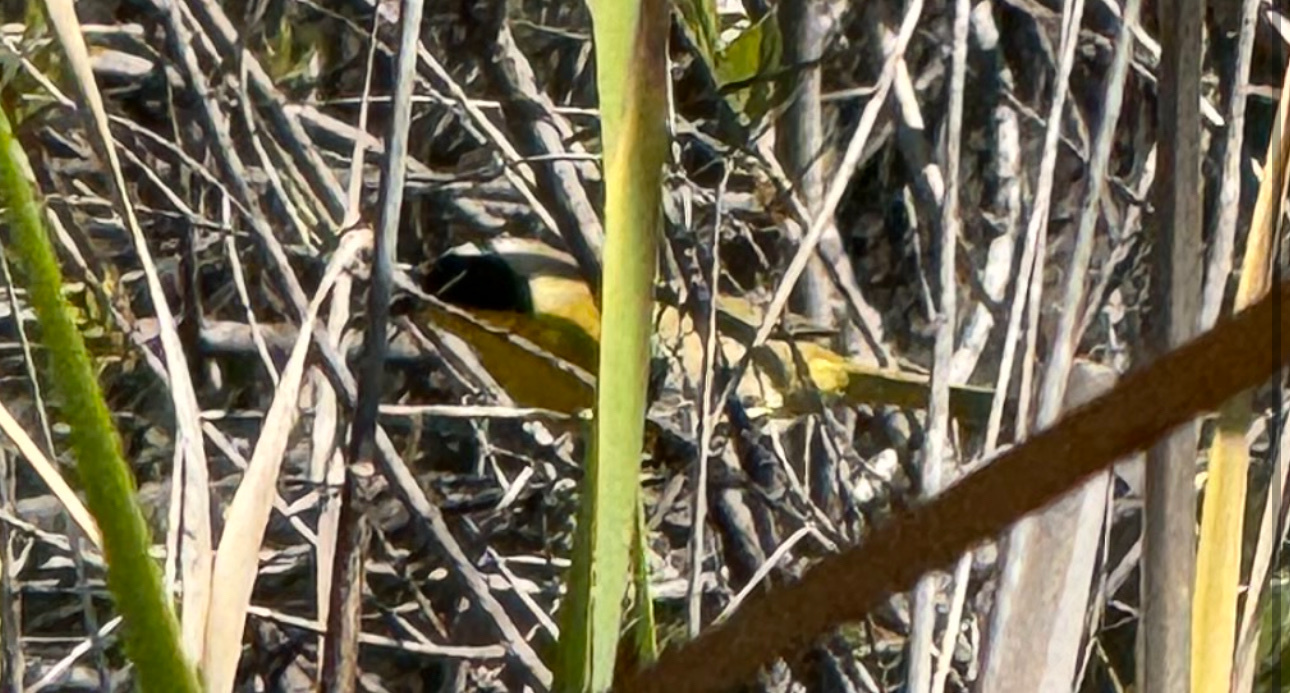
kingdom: Animalia
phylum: Chordata
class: Aves
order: Passeriformes
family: Parulidae
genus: Geothlypis
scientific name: Geothlypis trichas
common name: Common yellowthroat
